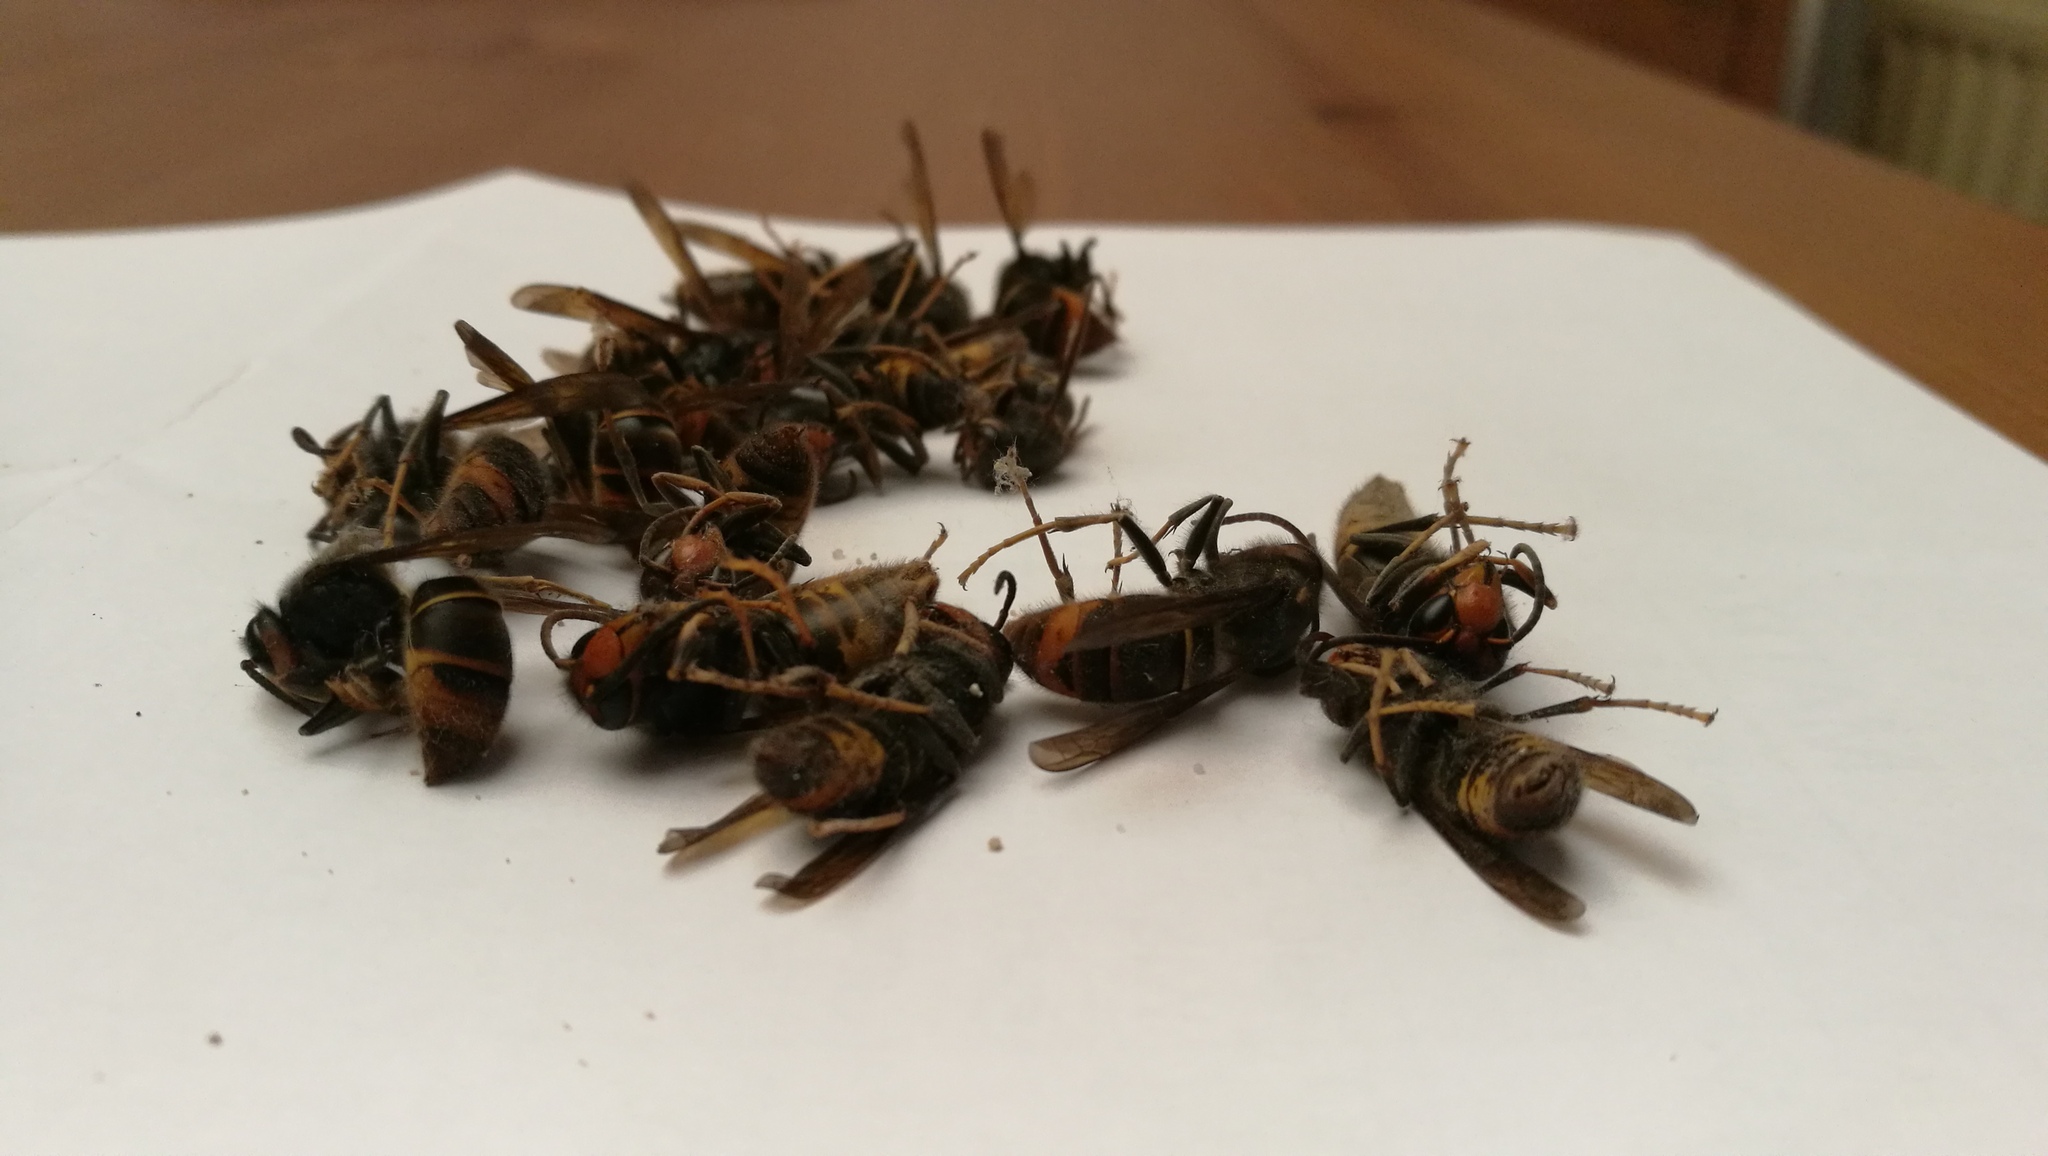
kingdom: Animalia
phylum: Arthropoda
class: Insecta
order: Hymenoptera
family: Vespidae
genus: Vespa
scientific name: Vespa velutina
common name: Asian hornet
